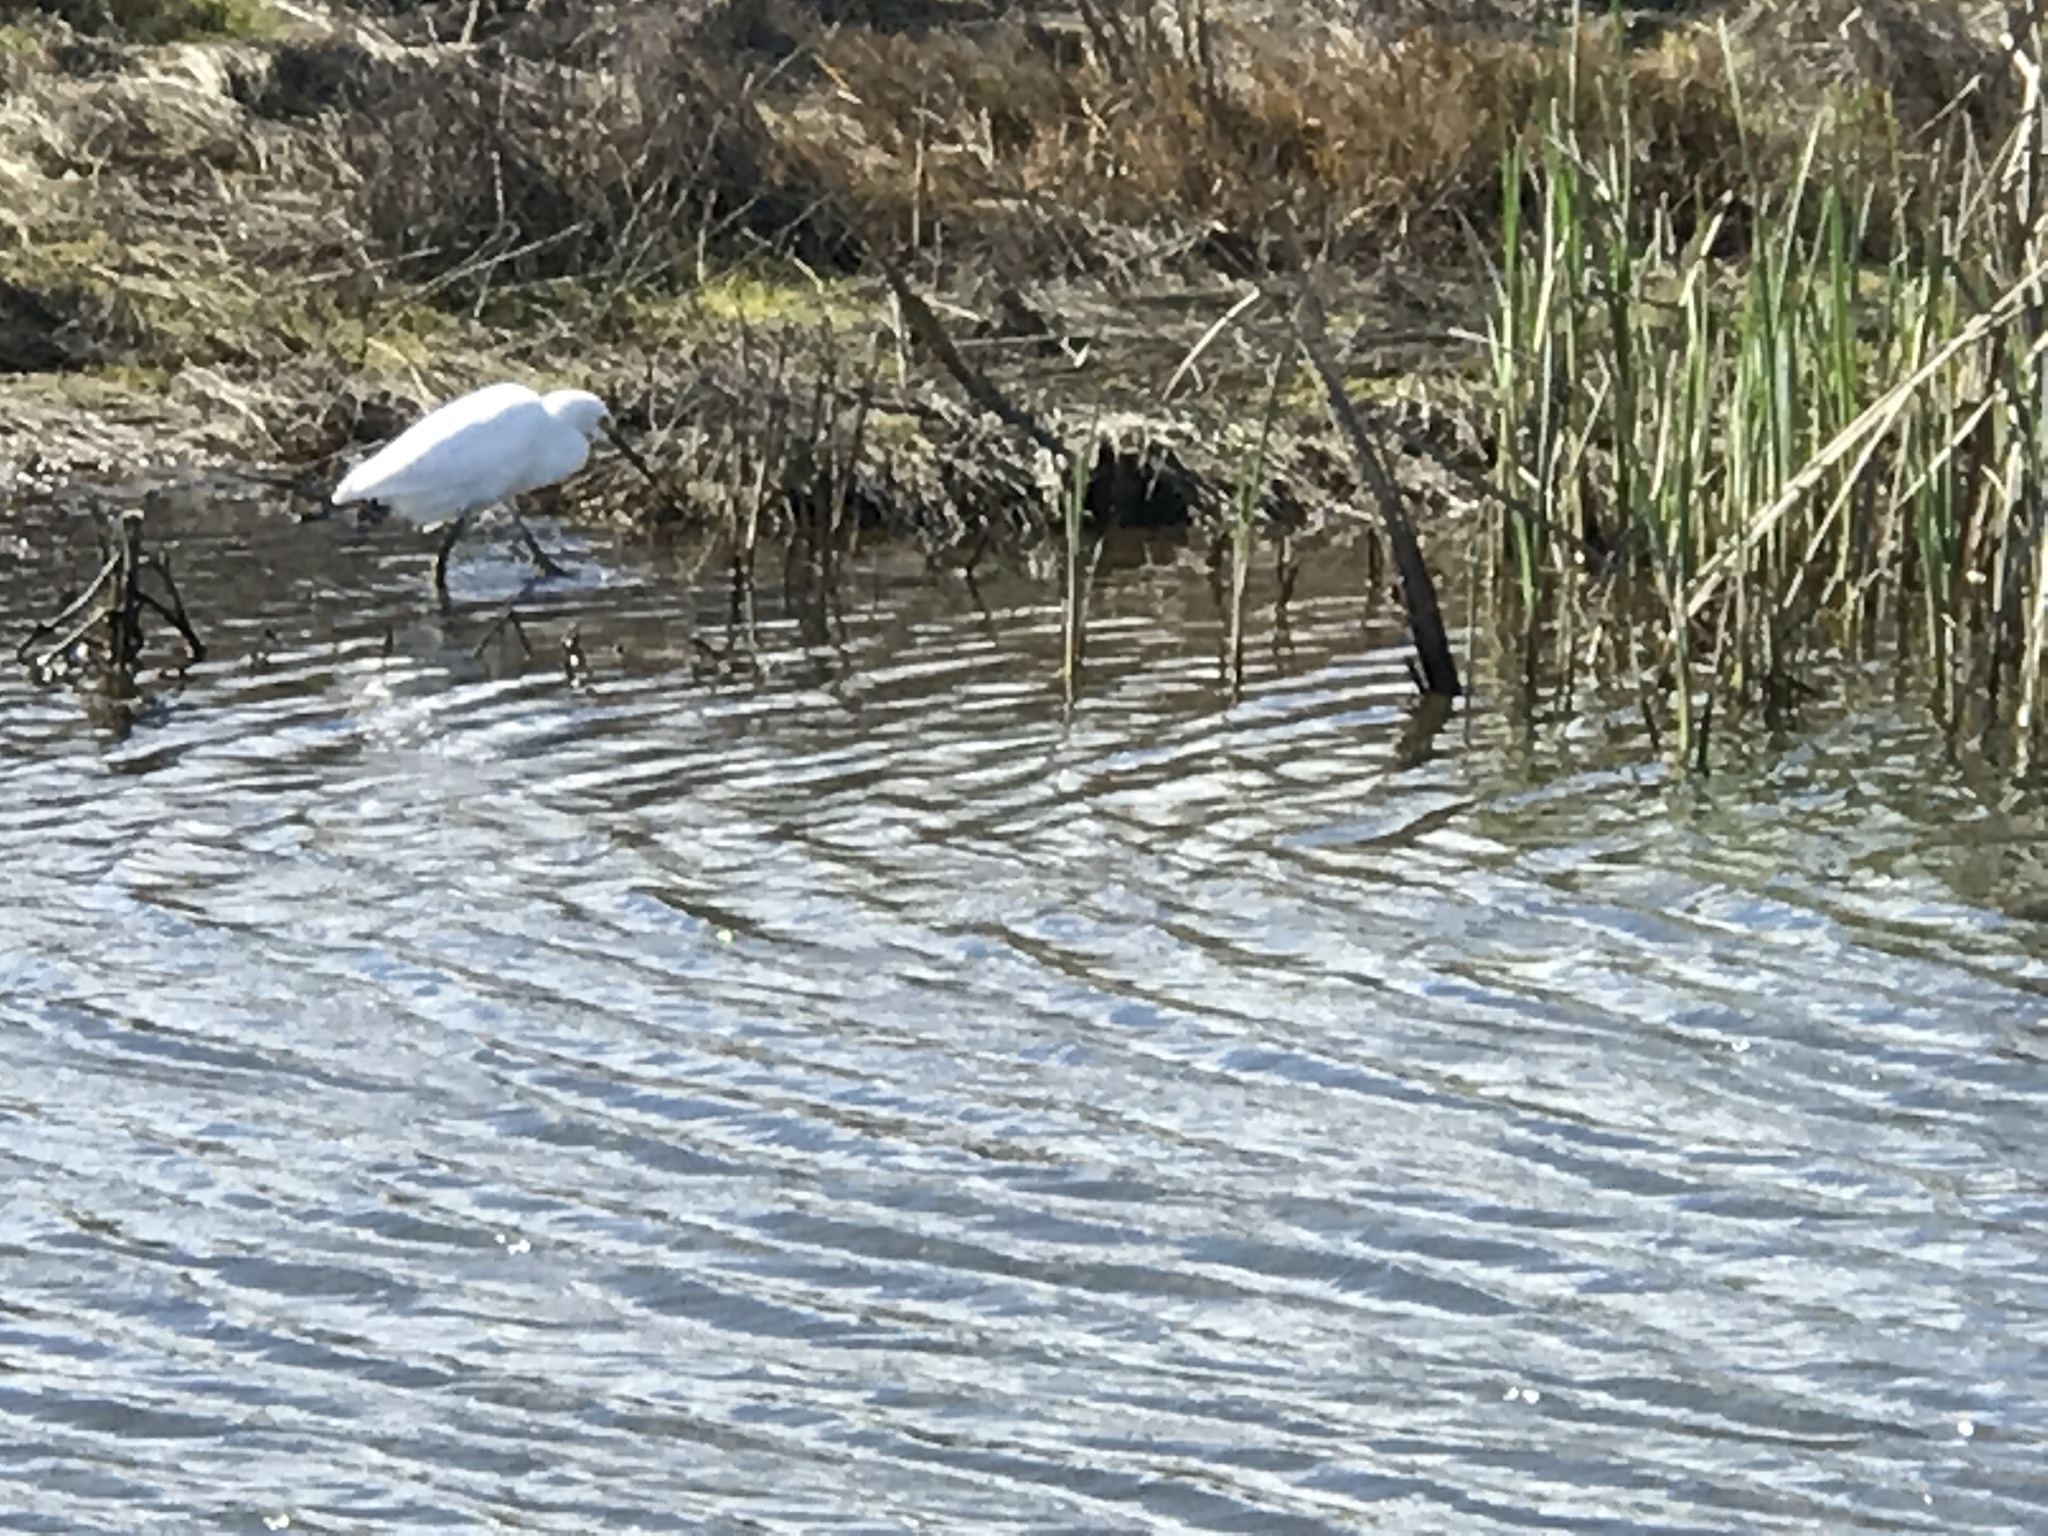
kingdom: Animalia
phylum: Chordata
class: Aves
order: Pelecaniformes
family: Ardeidae
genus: Egretta
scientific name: Egretta thula
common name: Snowy egret
